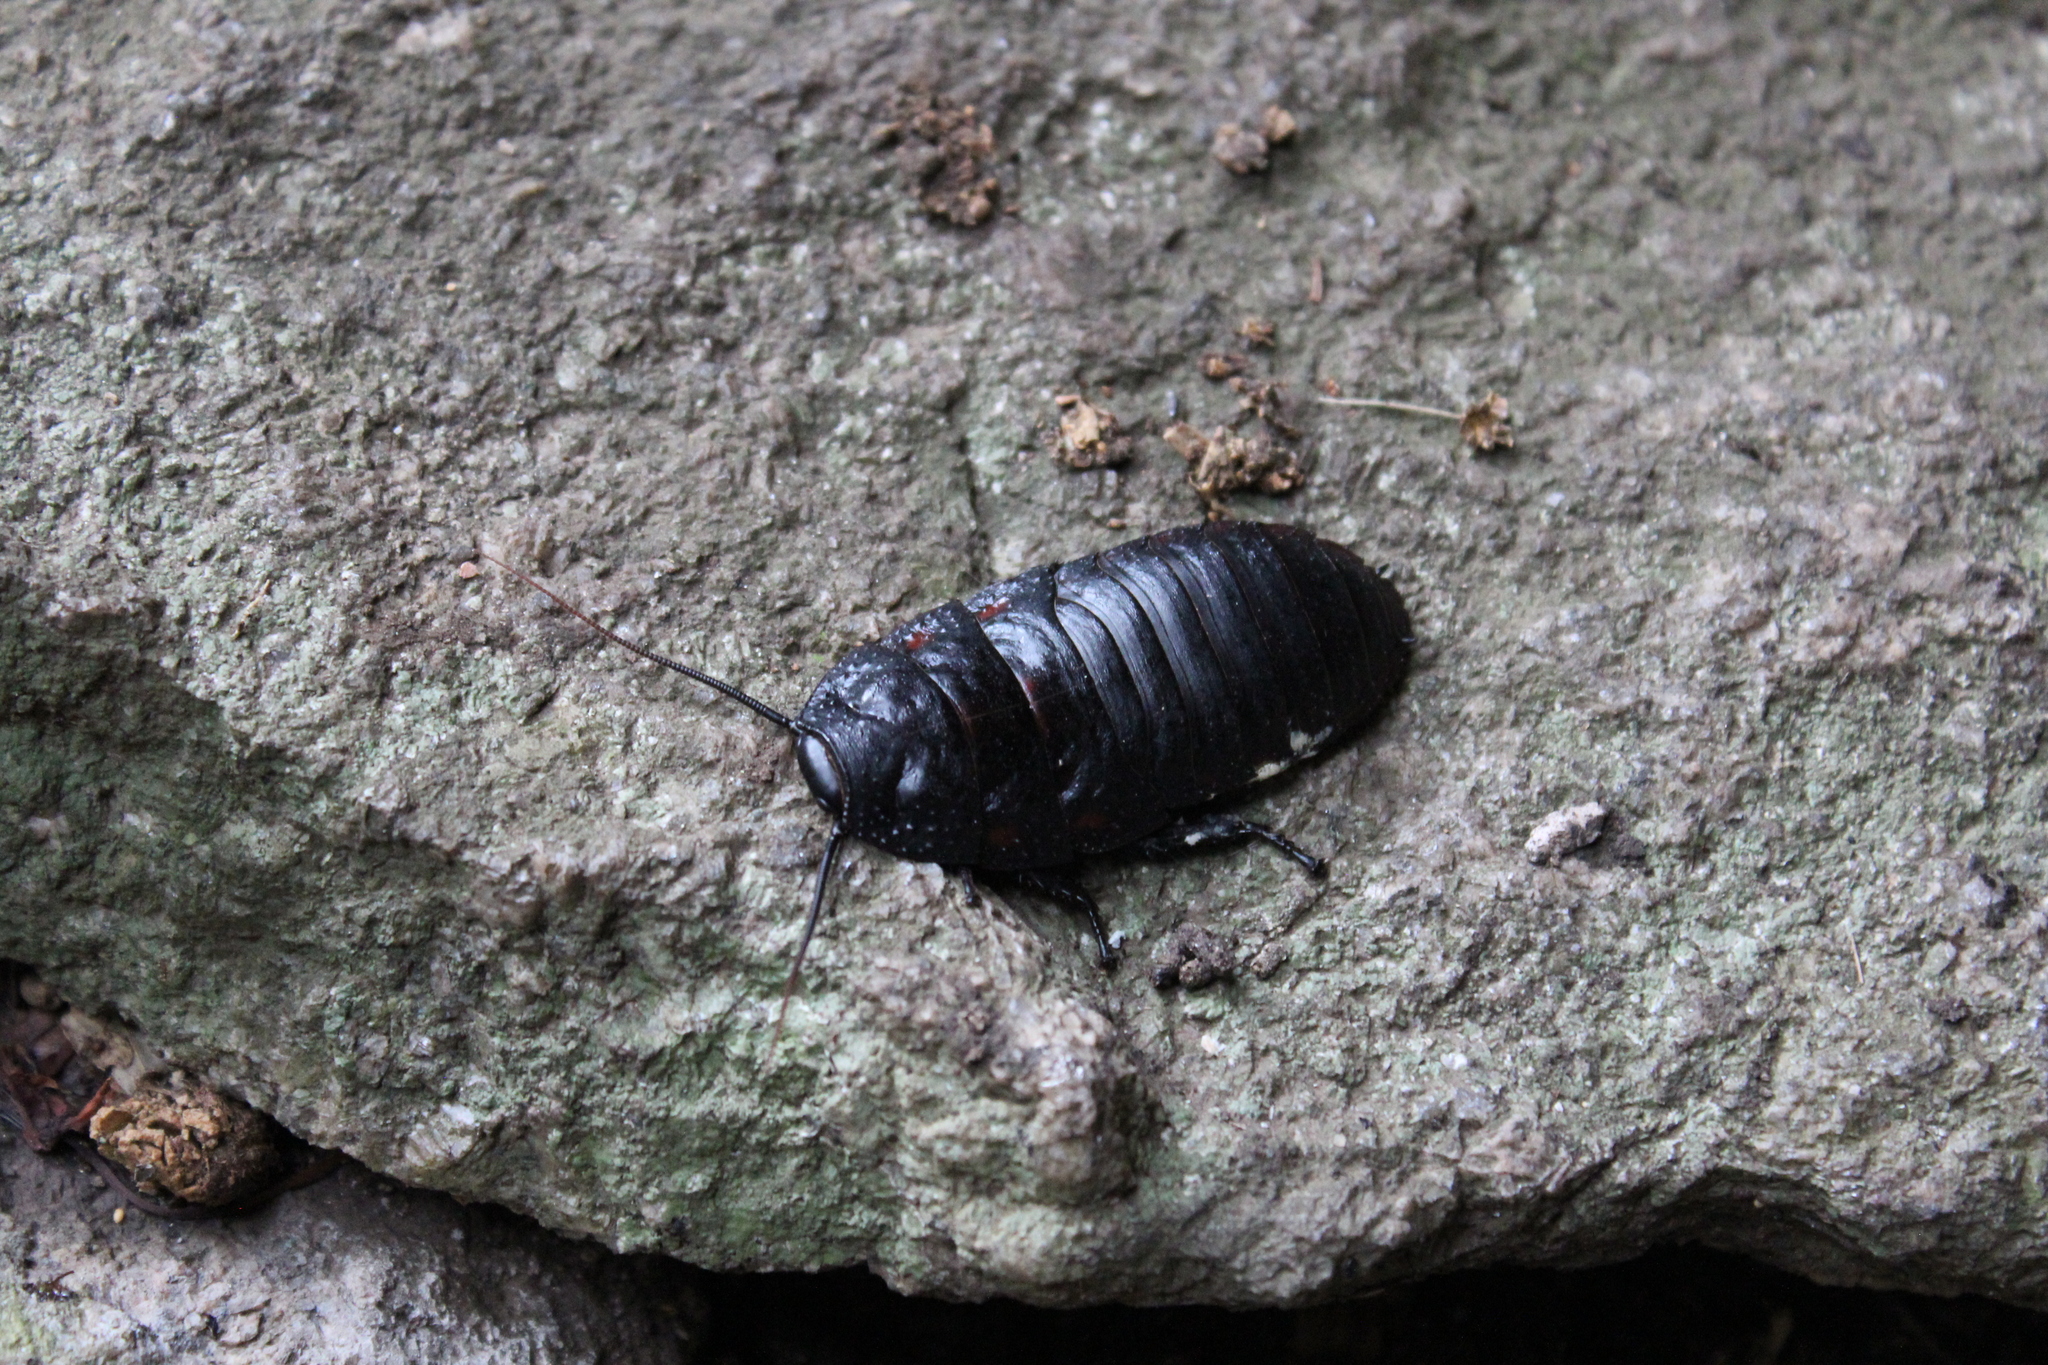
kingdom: Animalia
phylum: Arthropoda
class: Insecta
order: Blattodea
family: Blaberidae
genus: Aeluropoda
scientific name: Aeluropoda insignis
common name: Flat horned hissing cockroach
